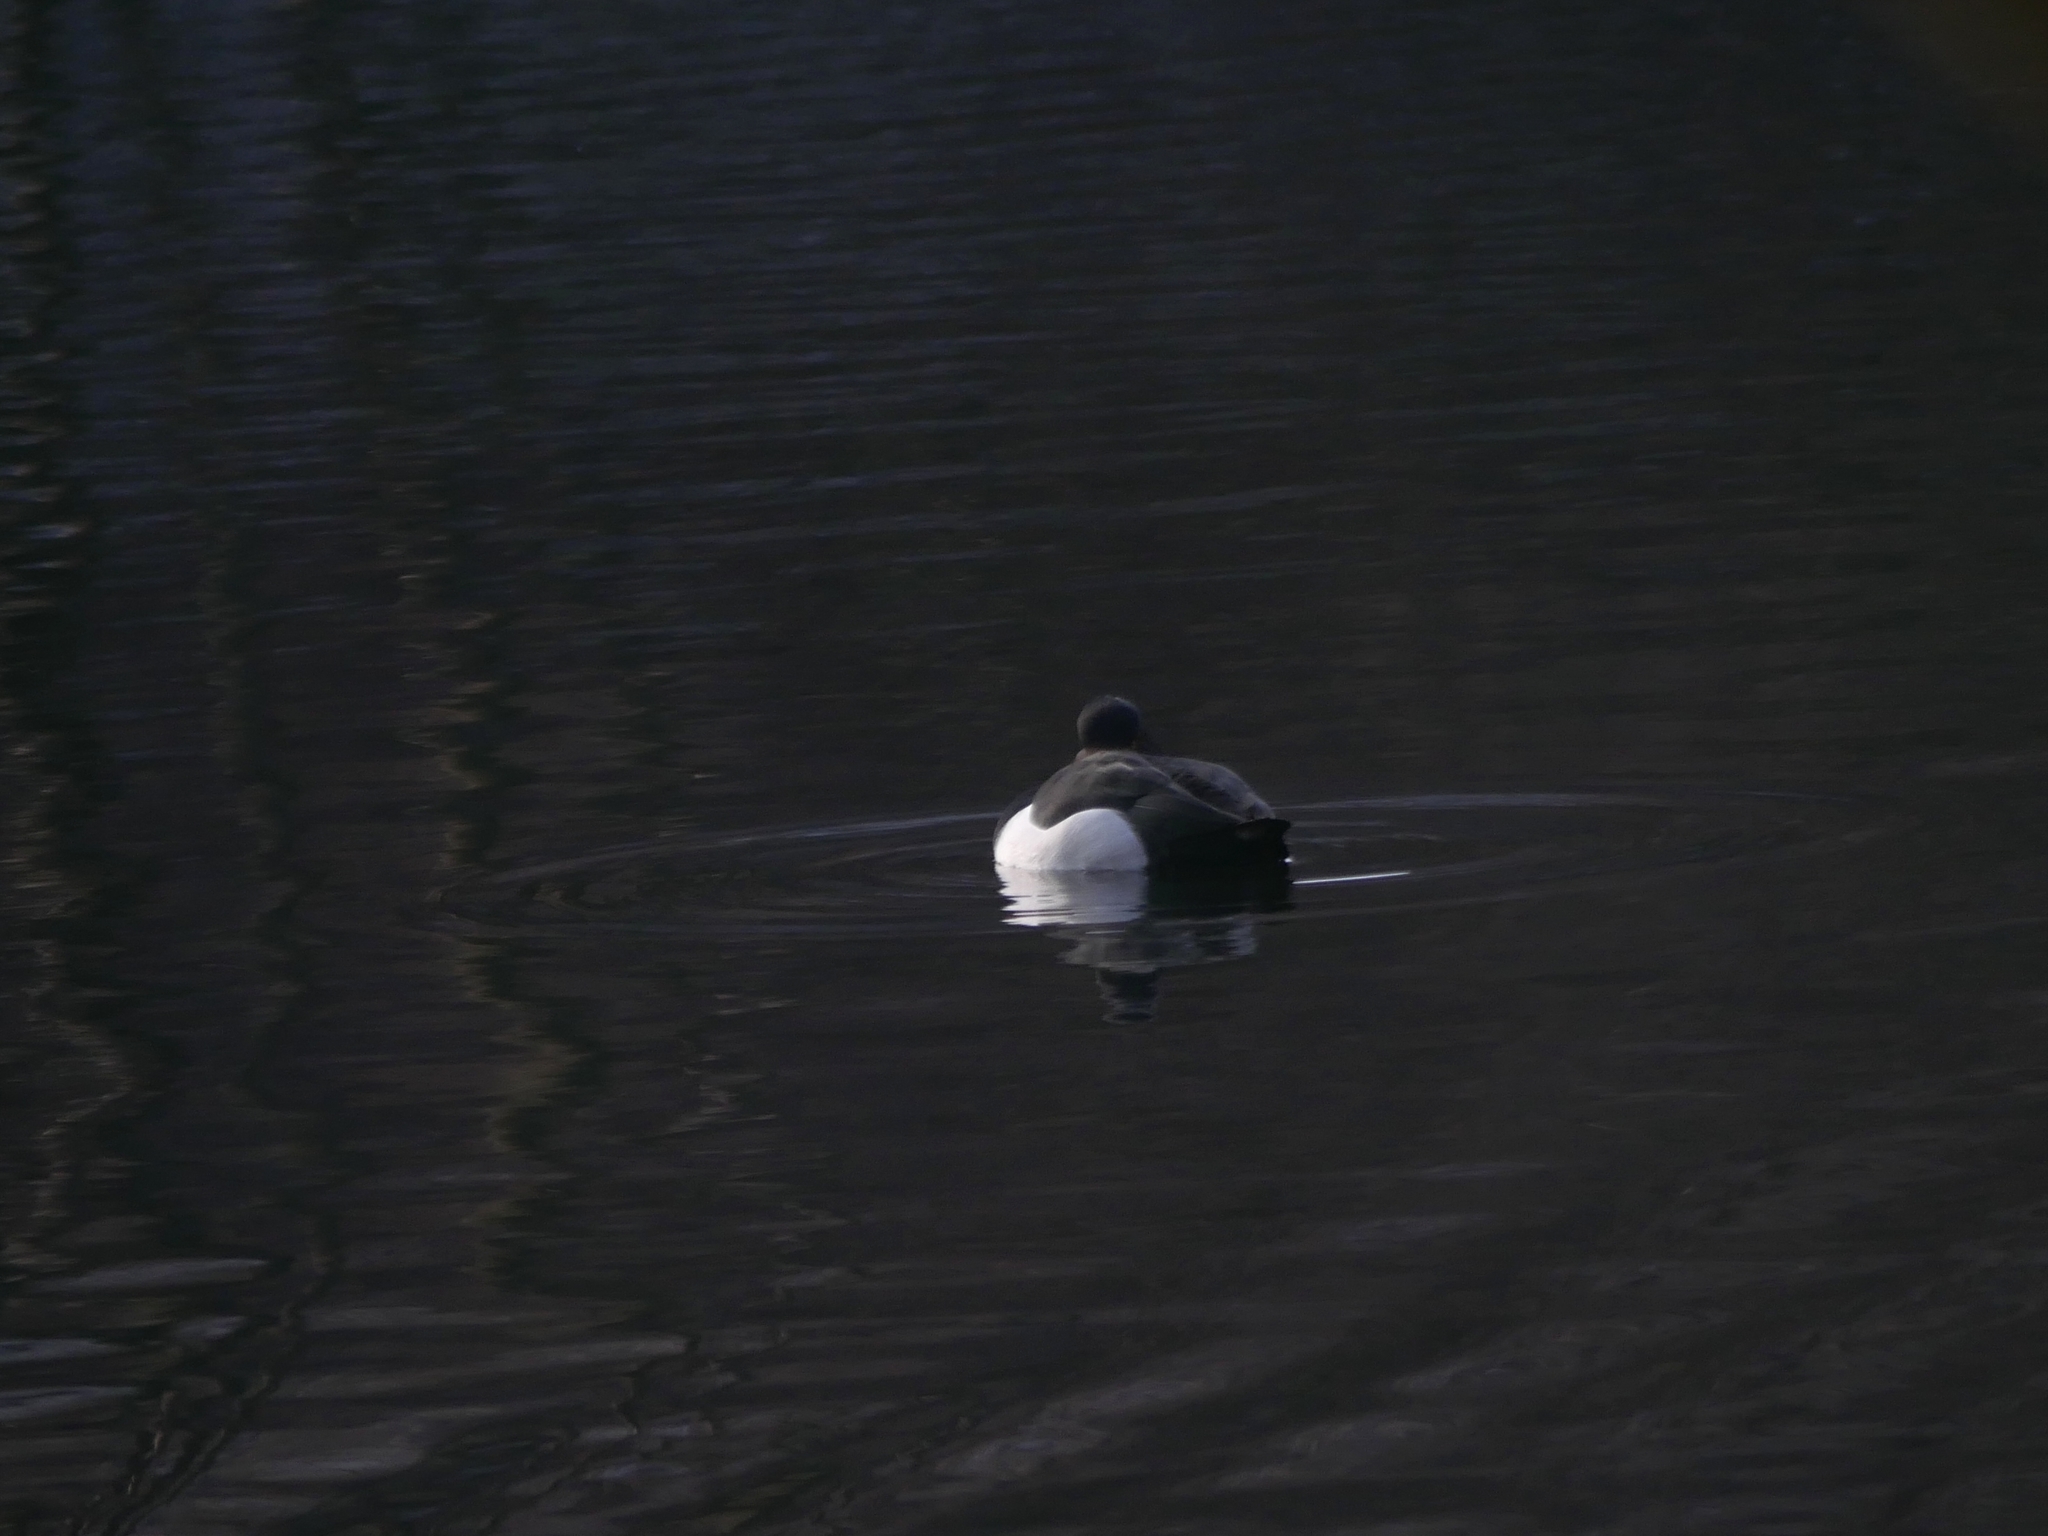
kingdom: Animalia
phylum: Chordata
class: Aves
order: Anseriformes
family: Anatidae
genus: Aythya
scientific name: Aythya fuligula
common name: Tufted duck
